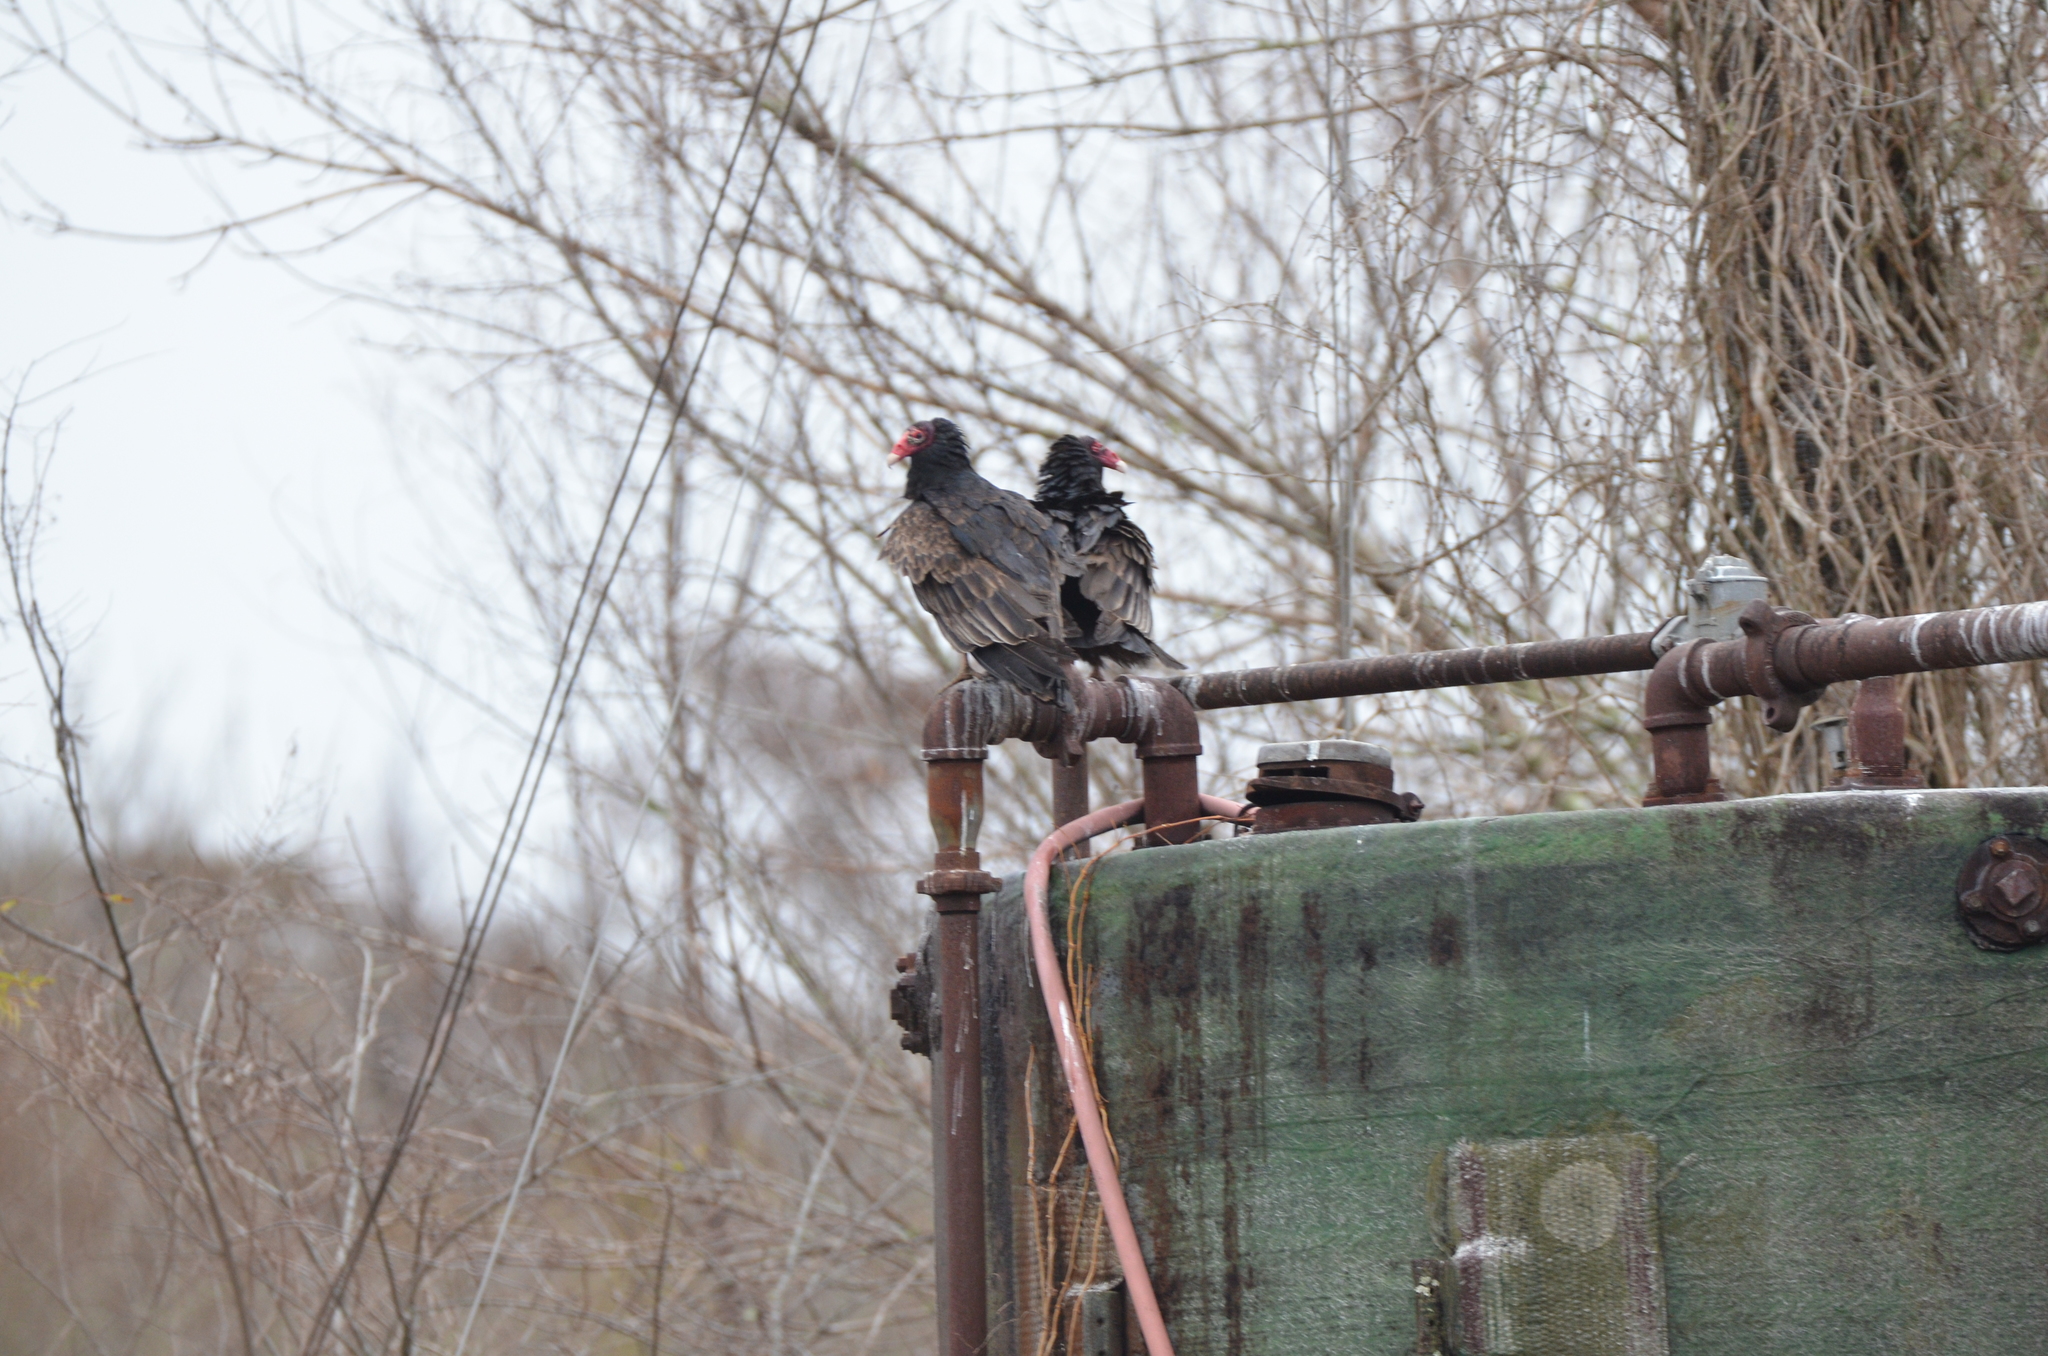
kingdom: Animalia
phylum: Chordata
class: Aves
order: Accipitriformes
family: Cathartidae
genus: Cathartes
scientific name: Cathartes aura
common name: Turkey vulture
